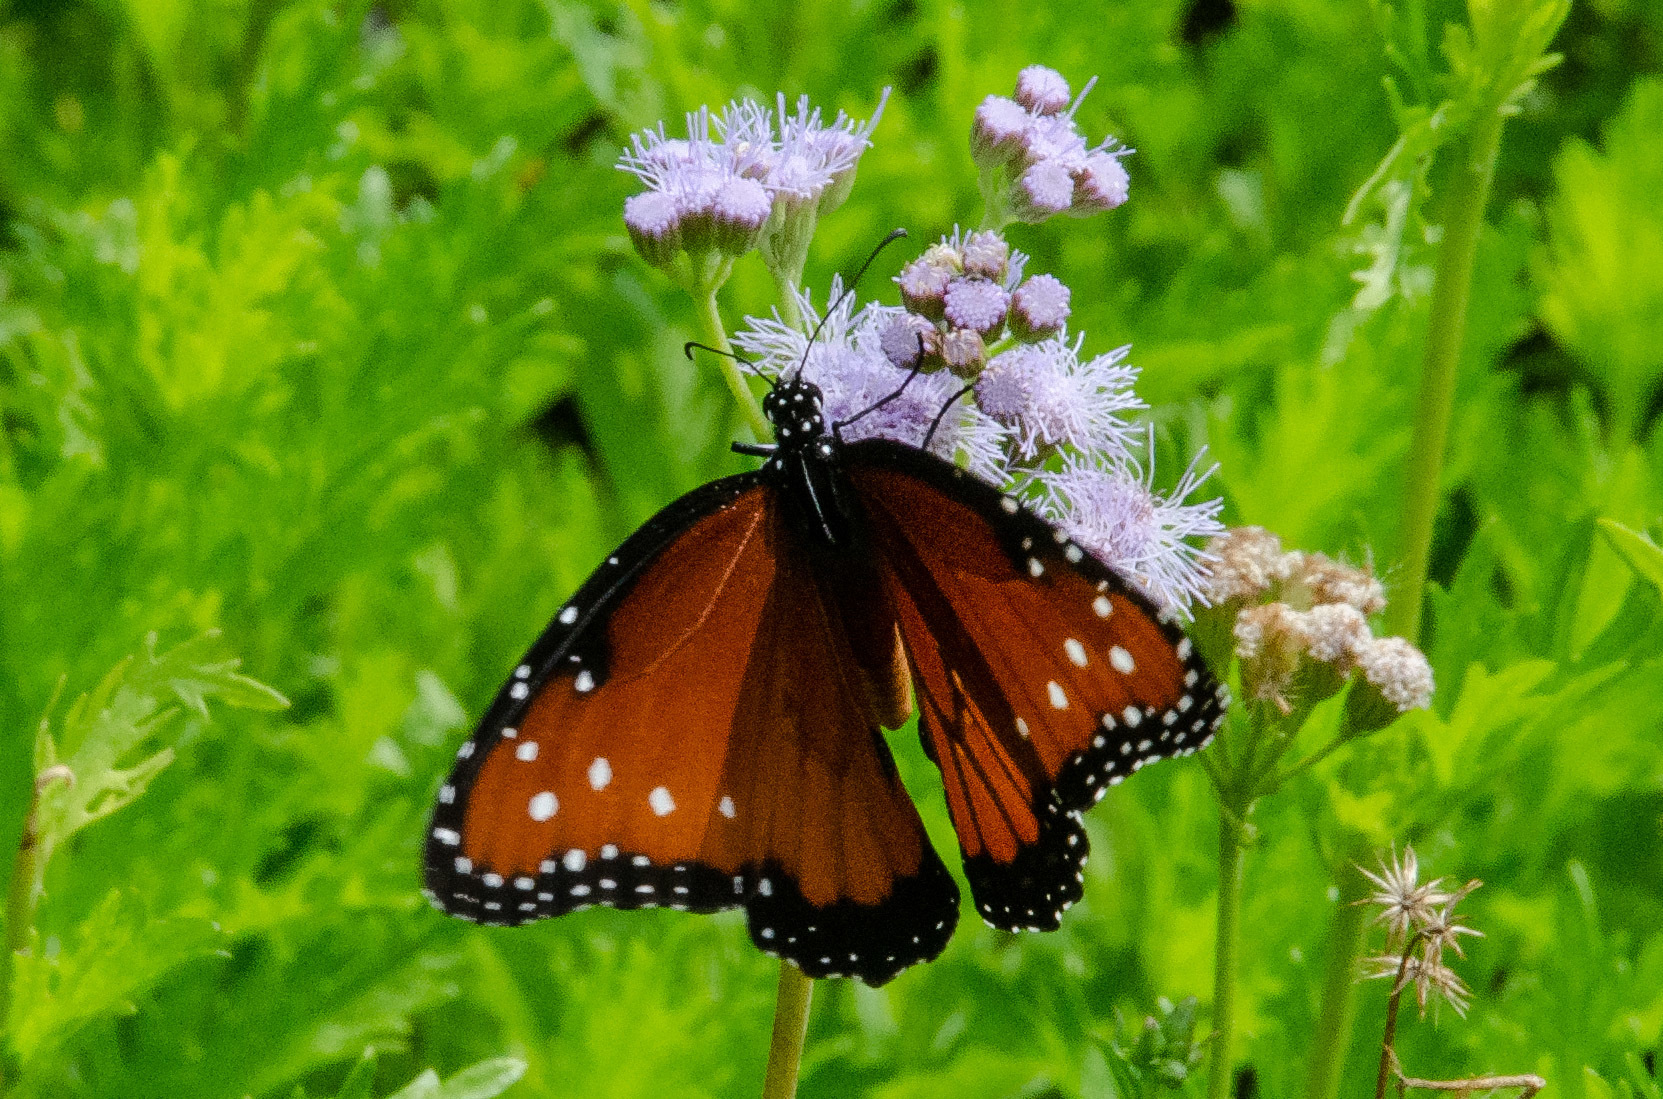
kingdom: Animalia
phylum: Arthropoda
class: Insecta
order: Lepidoptera
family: Nymphalidae
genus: Danaus
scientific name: Danaus gilippus
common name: Queen
